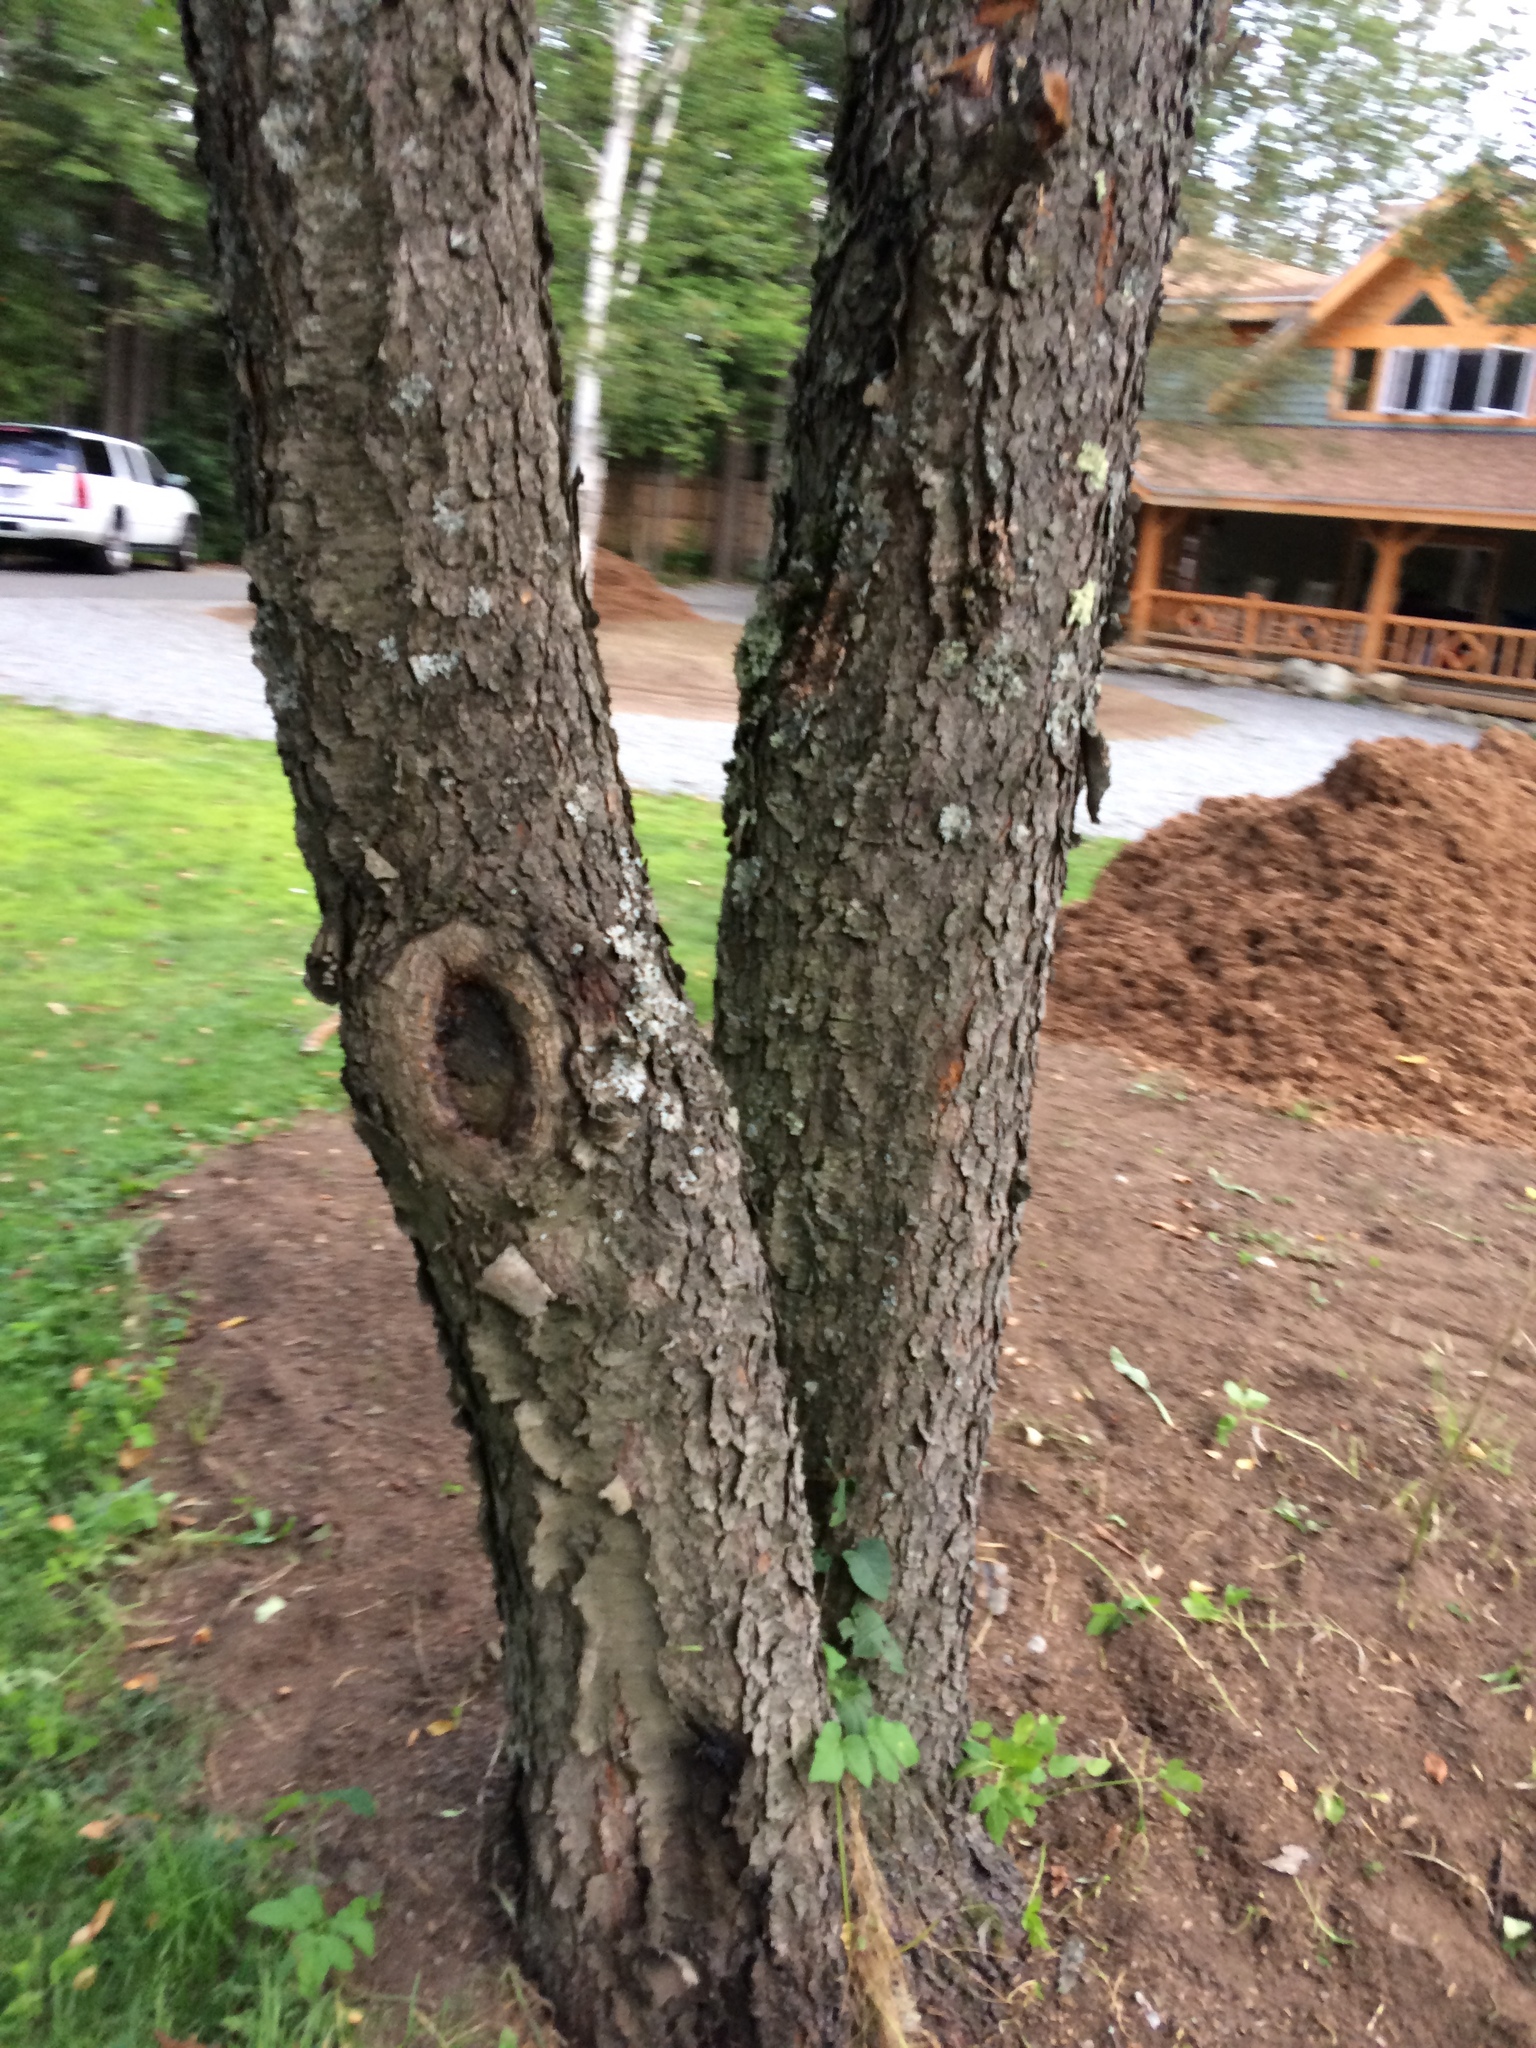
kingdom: Plantae
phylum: Tracheophyta
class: Magnoliopsida
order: Rosales
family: Rosaceae
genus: Prunus
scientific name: Prunus serotina
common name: Black cherry
